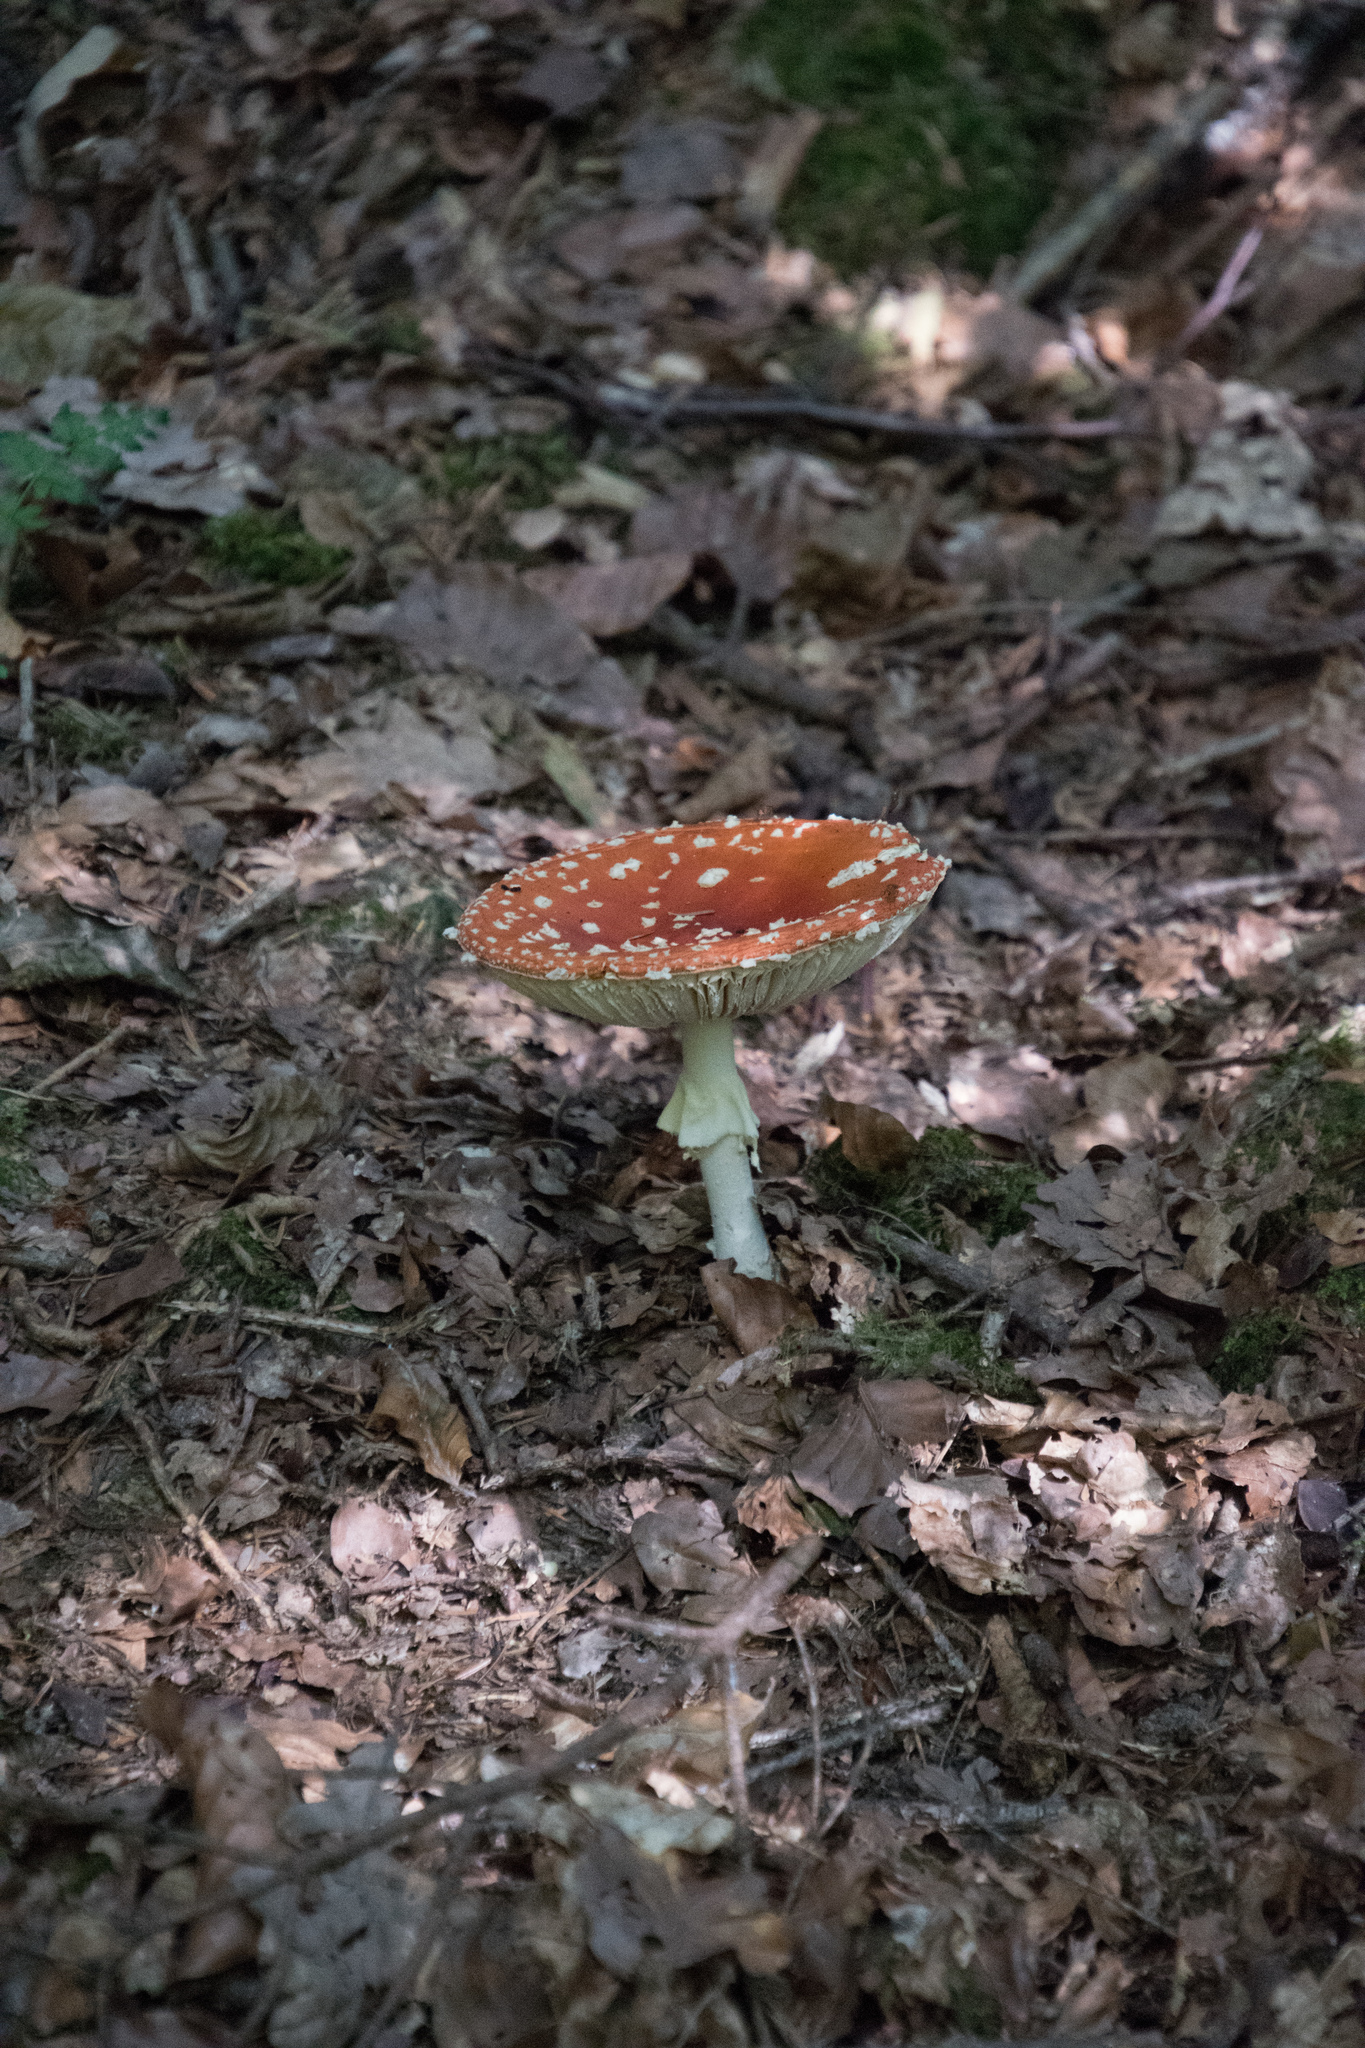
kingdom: Fungi
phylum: Basidiomycota
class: Agaricomycetes
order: Agaricales
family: Amanitaceae
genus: Amanita
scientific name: Amanita muscaria
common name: Fly agaric
